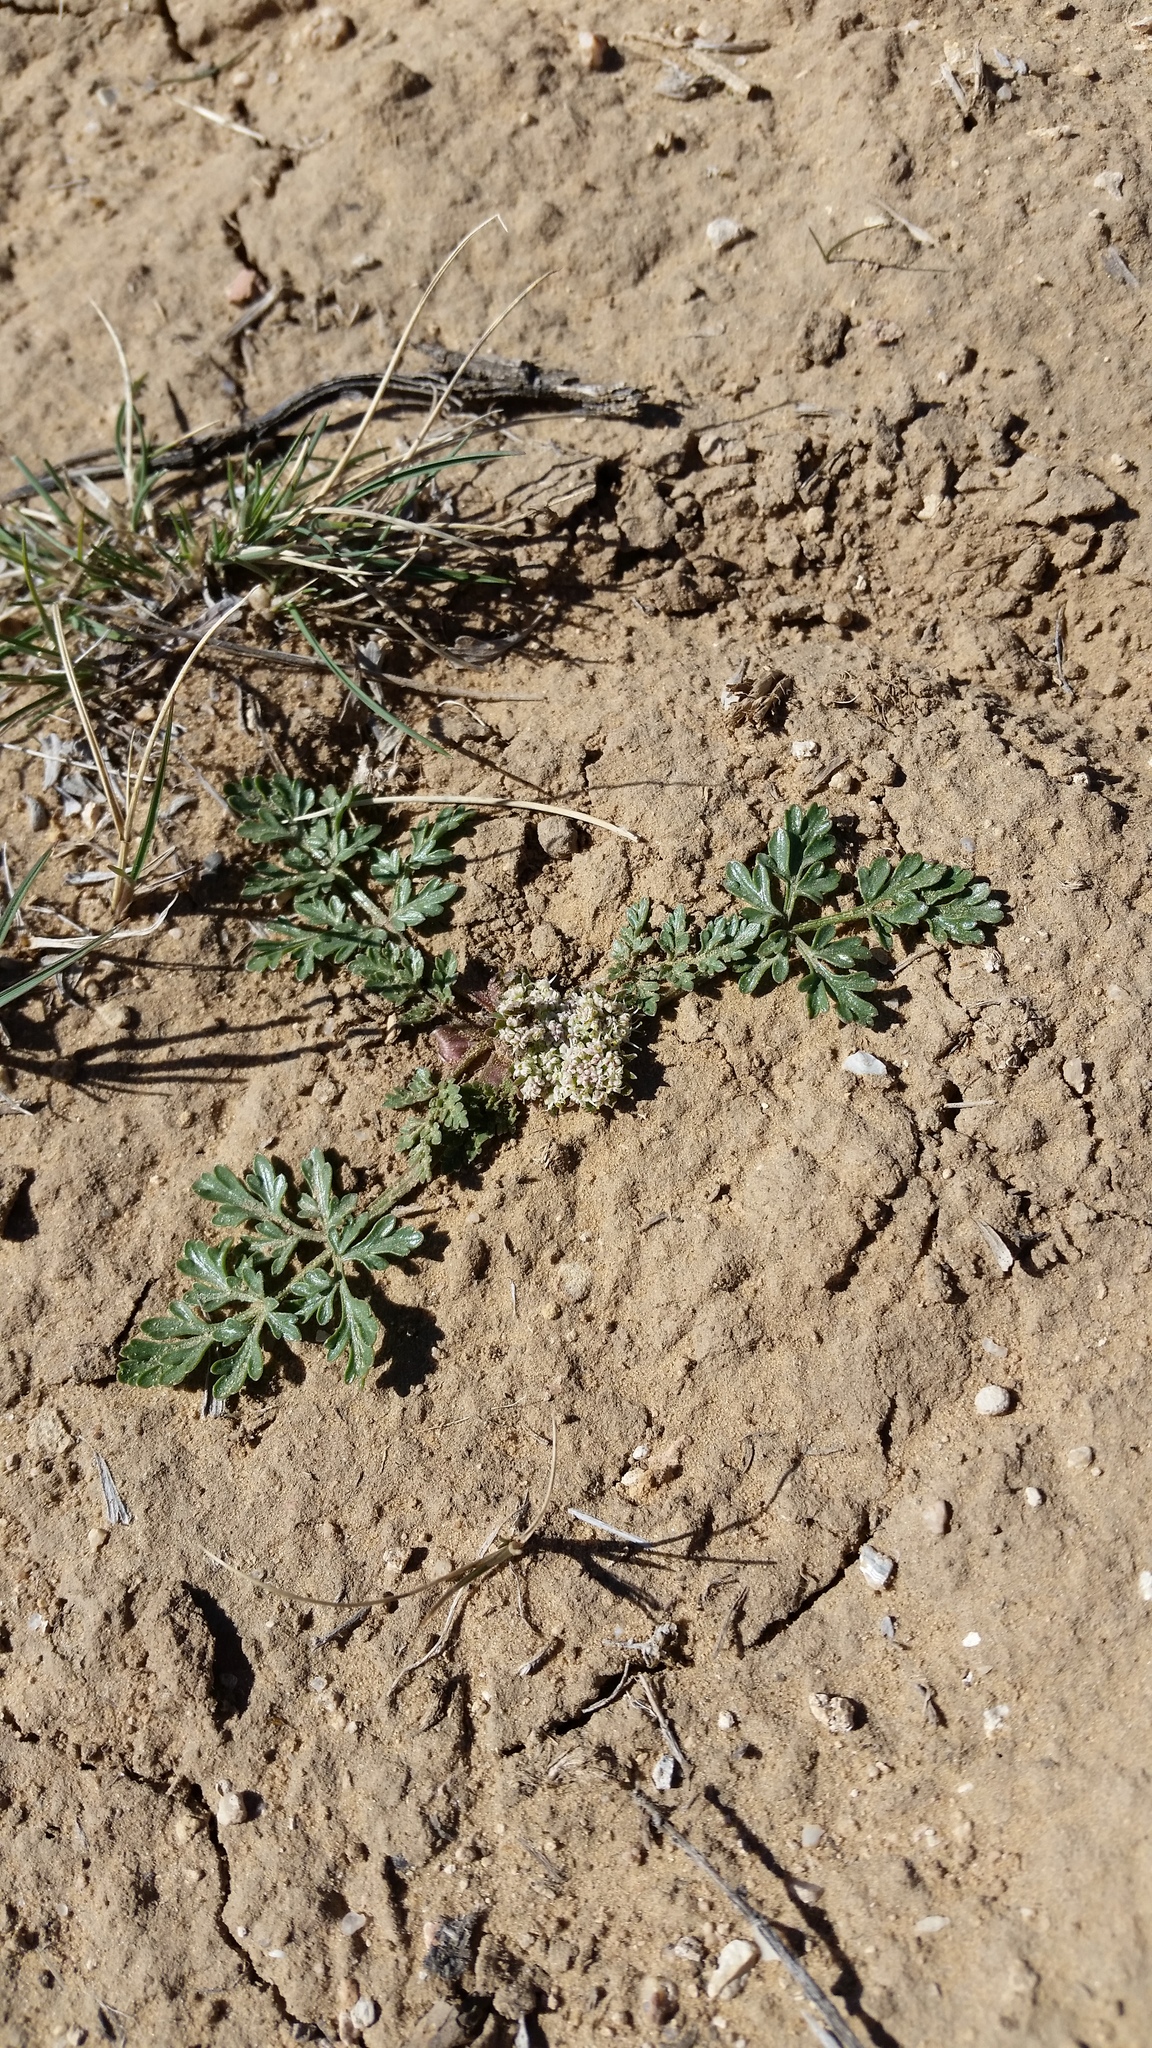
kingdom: Plantae
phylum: Tracheophyta
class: Magnoliopsida
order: Apiales
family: Apiaceae
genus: Cymopterus
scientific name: Cymopterus glomeratus
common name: Plains spring parsley
